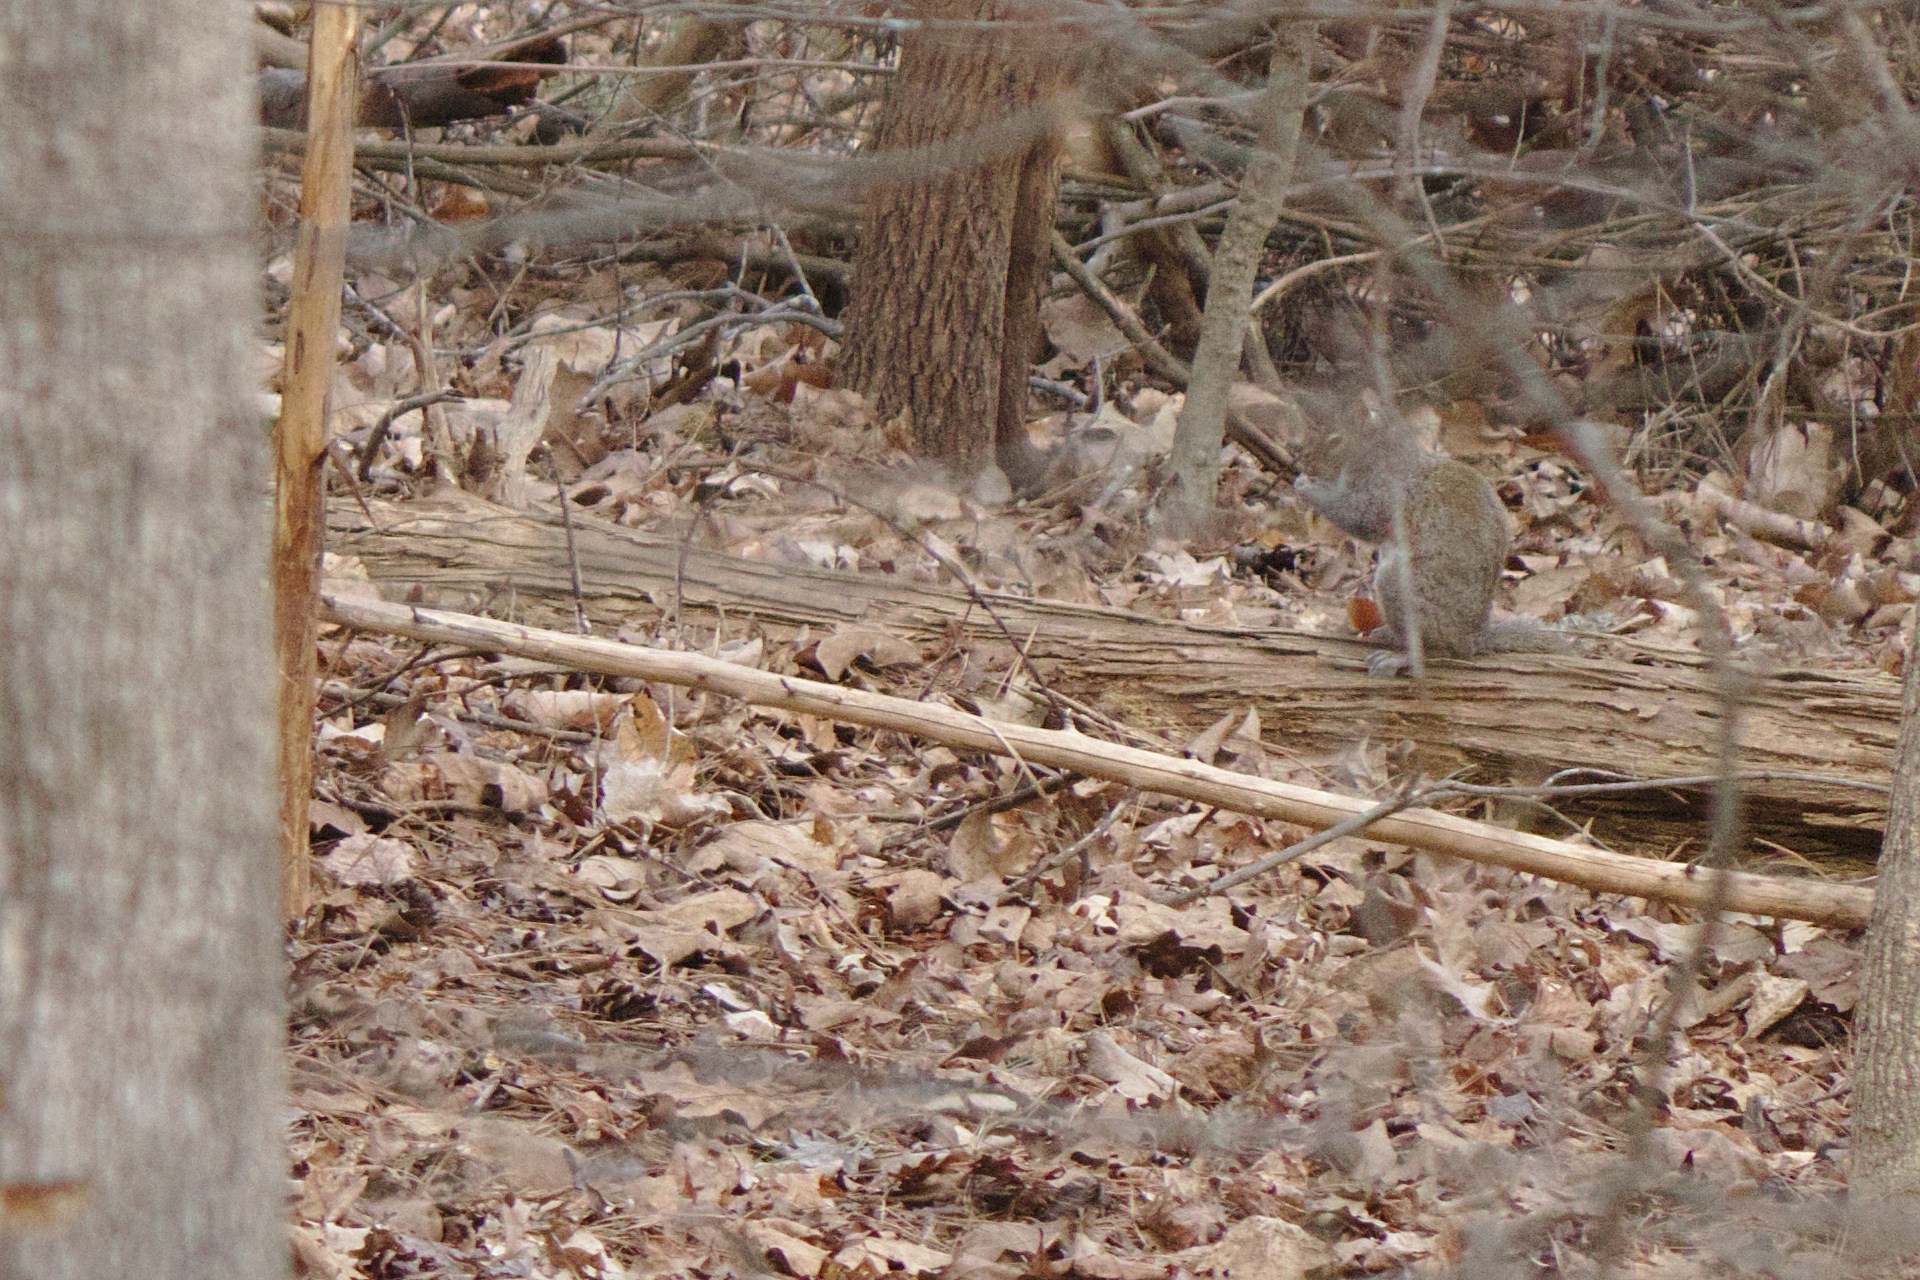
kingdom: Animalia
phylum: Chordata
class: Mammalia
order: Rodentia
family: Sciuridae
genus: Sciurus
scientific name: Sciurus carolinensis
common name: Eastern gray squirrel
